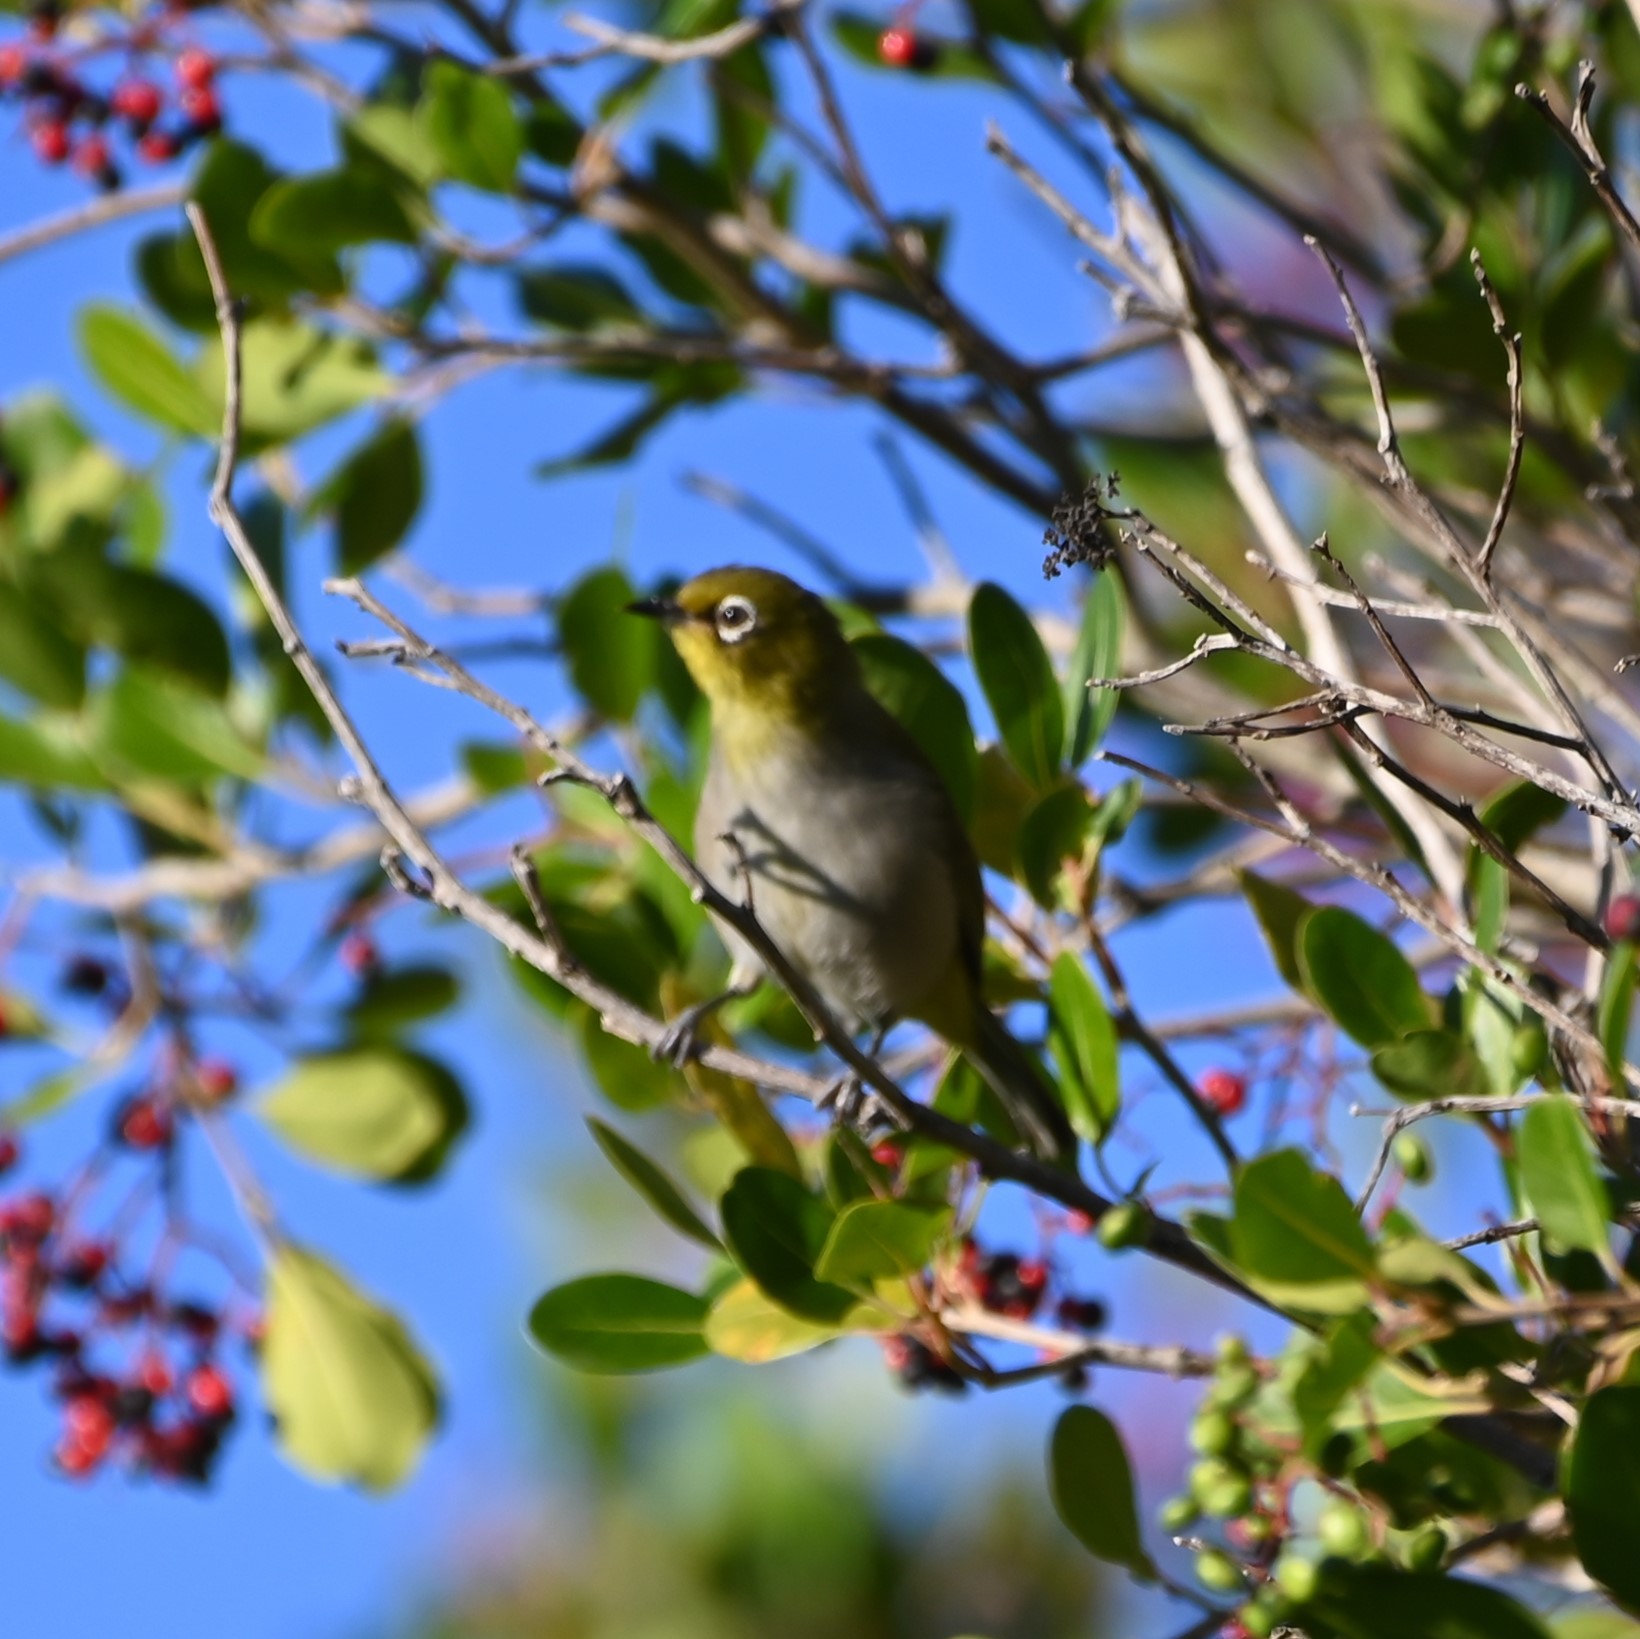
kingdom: Animalia
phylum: Chordata
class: Aves
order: Passeriformes
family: Zosteropidae
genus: Zosterops
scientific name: Zosterops virens
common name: Cape white-eye
